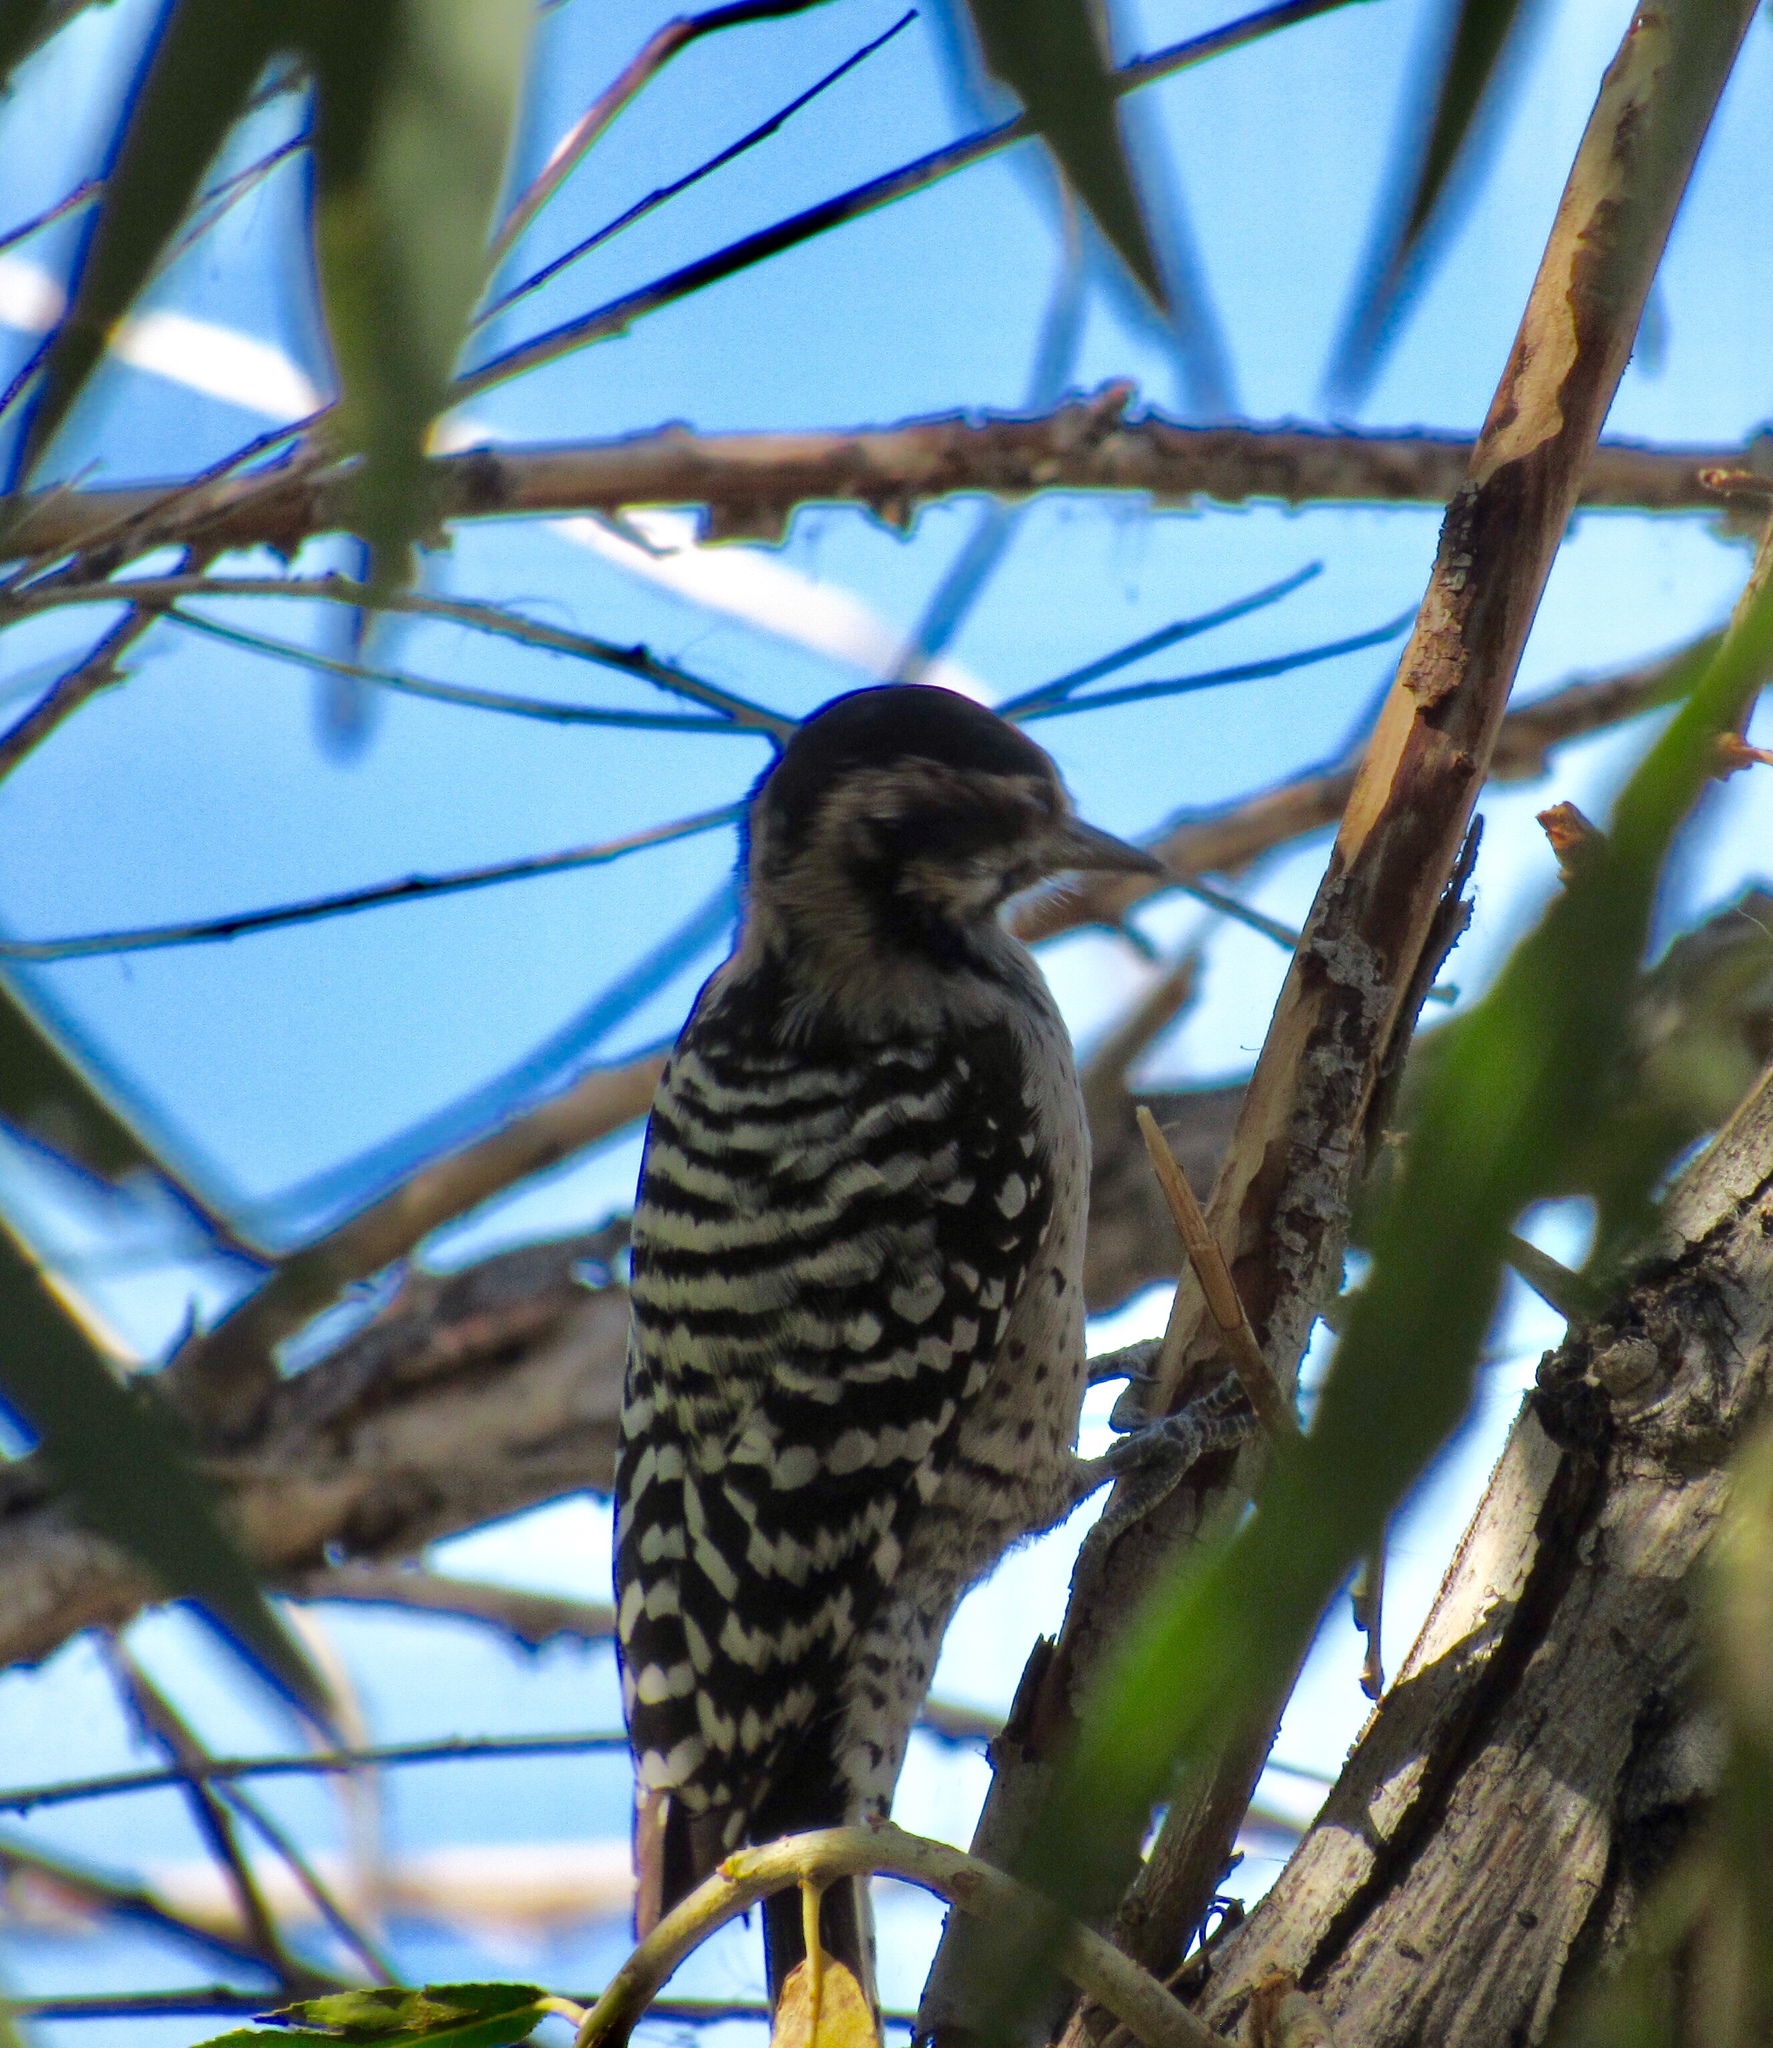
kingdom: Animalia
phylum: Chordata
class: Aves
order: Piciformes
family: Picidae
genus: Dryobates
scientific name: Dryobates scalaris
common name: Ladder-backed woodpecker
